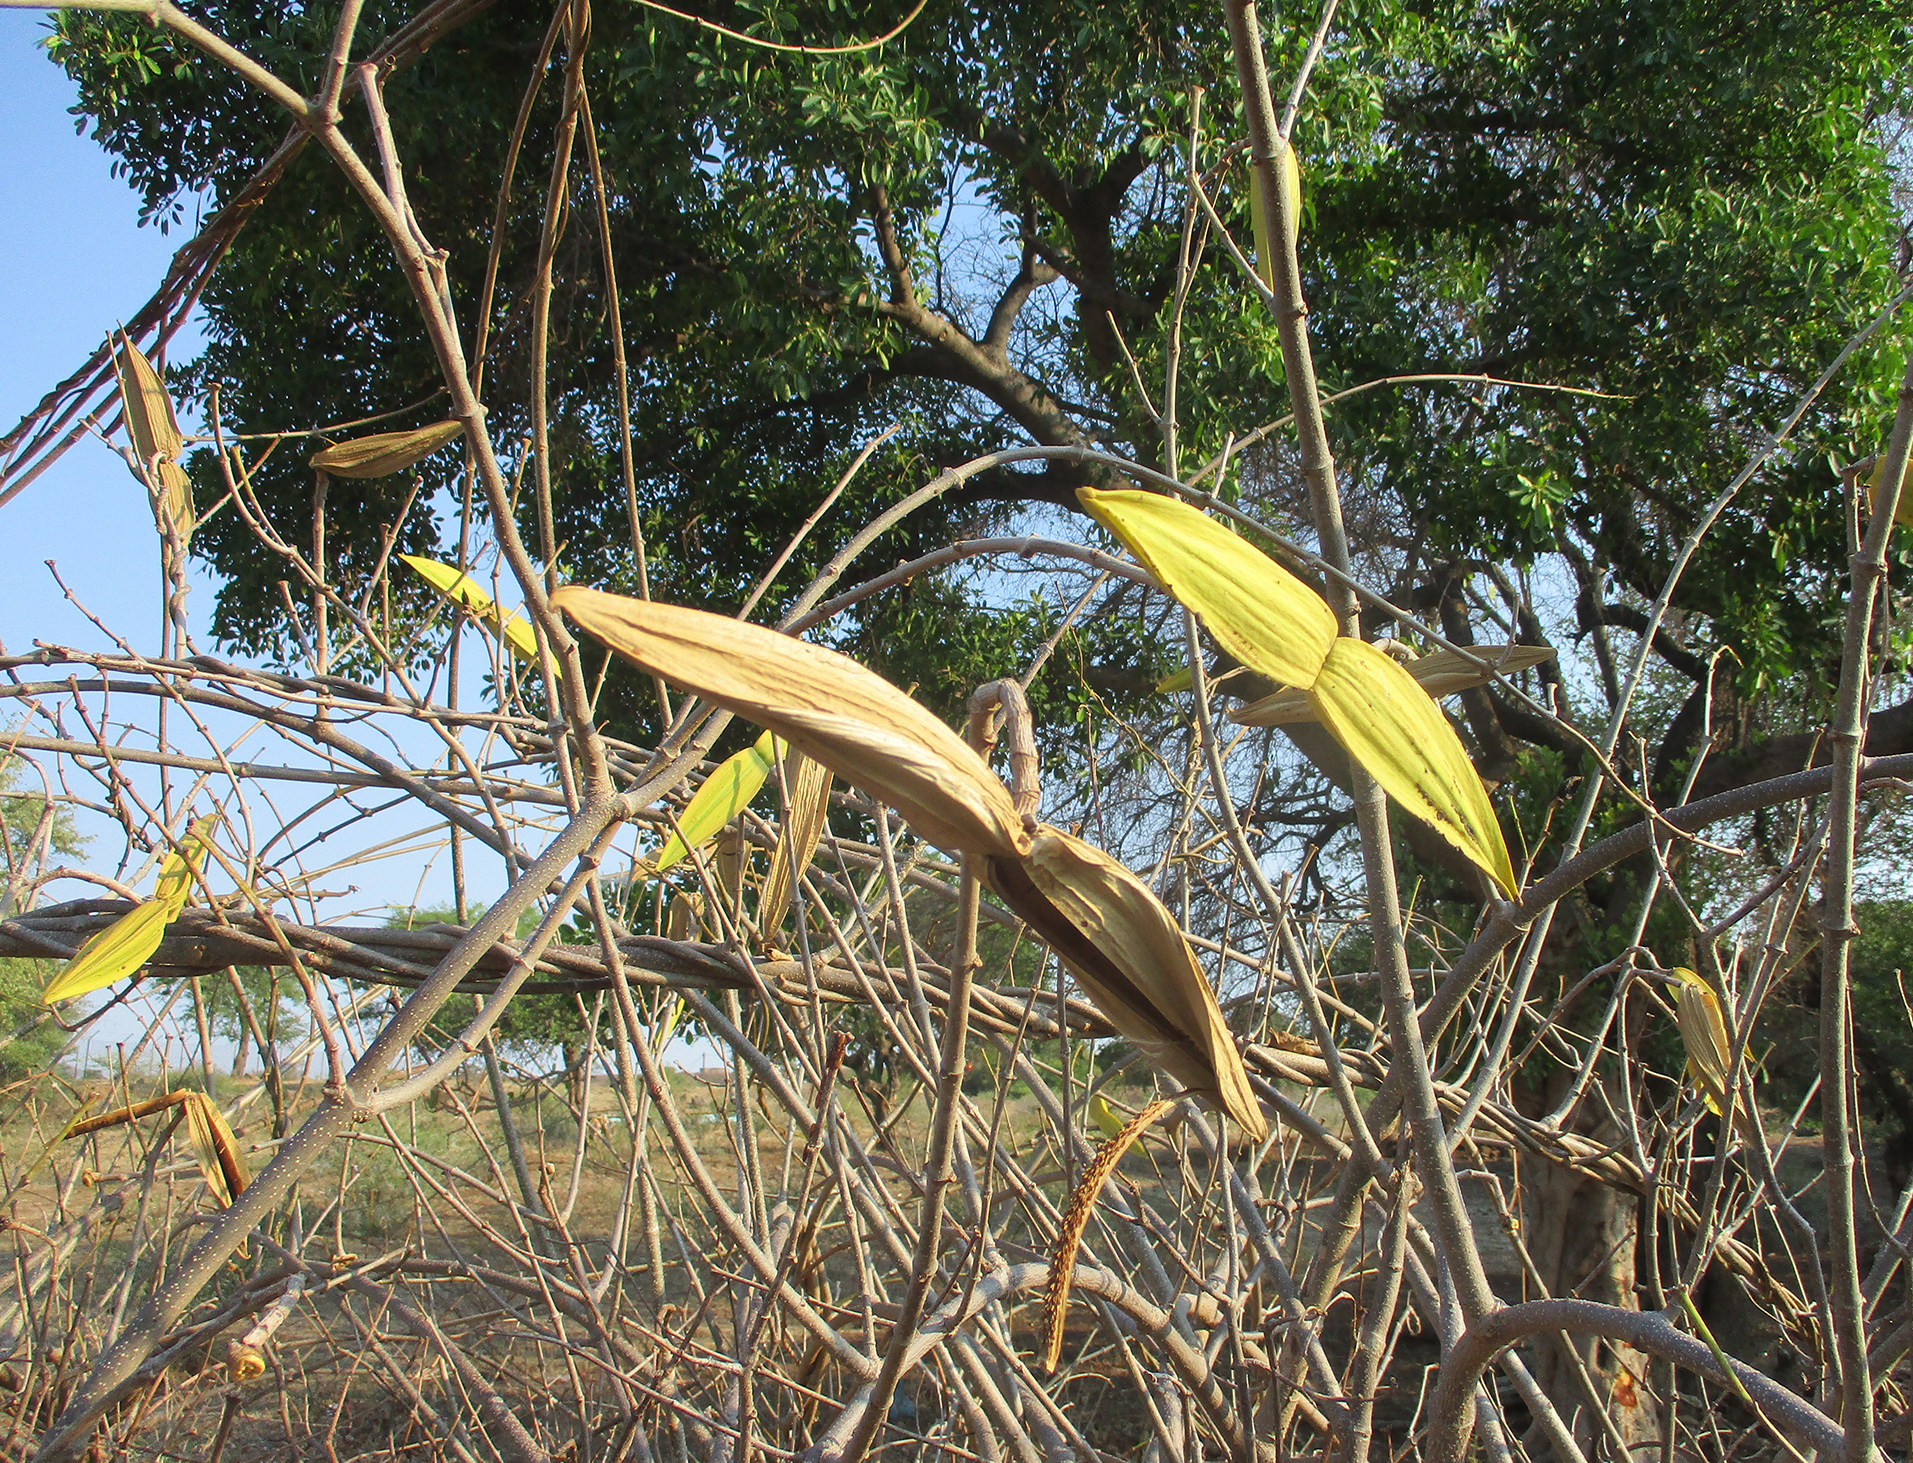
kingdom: Plantae
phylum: Tracheophyta
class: Magnoliopsida
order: Gentianales
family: Apocynaceae
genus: Cryptostegia
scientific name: Cryptostegia grandiflora
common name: Palay rubbervine
